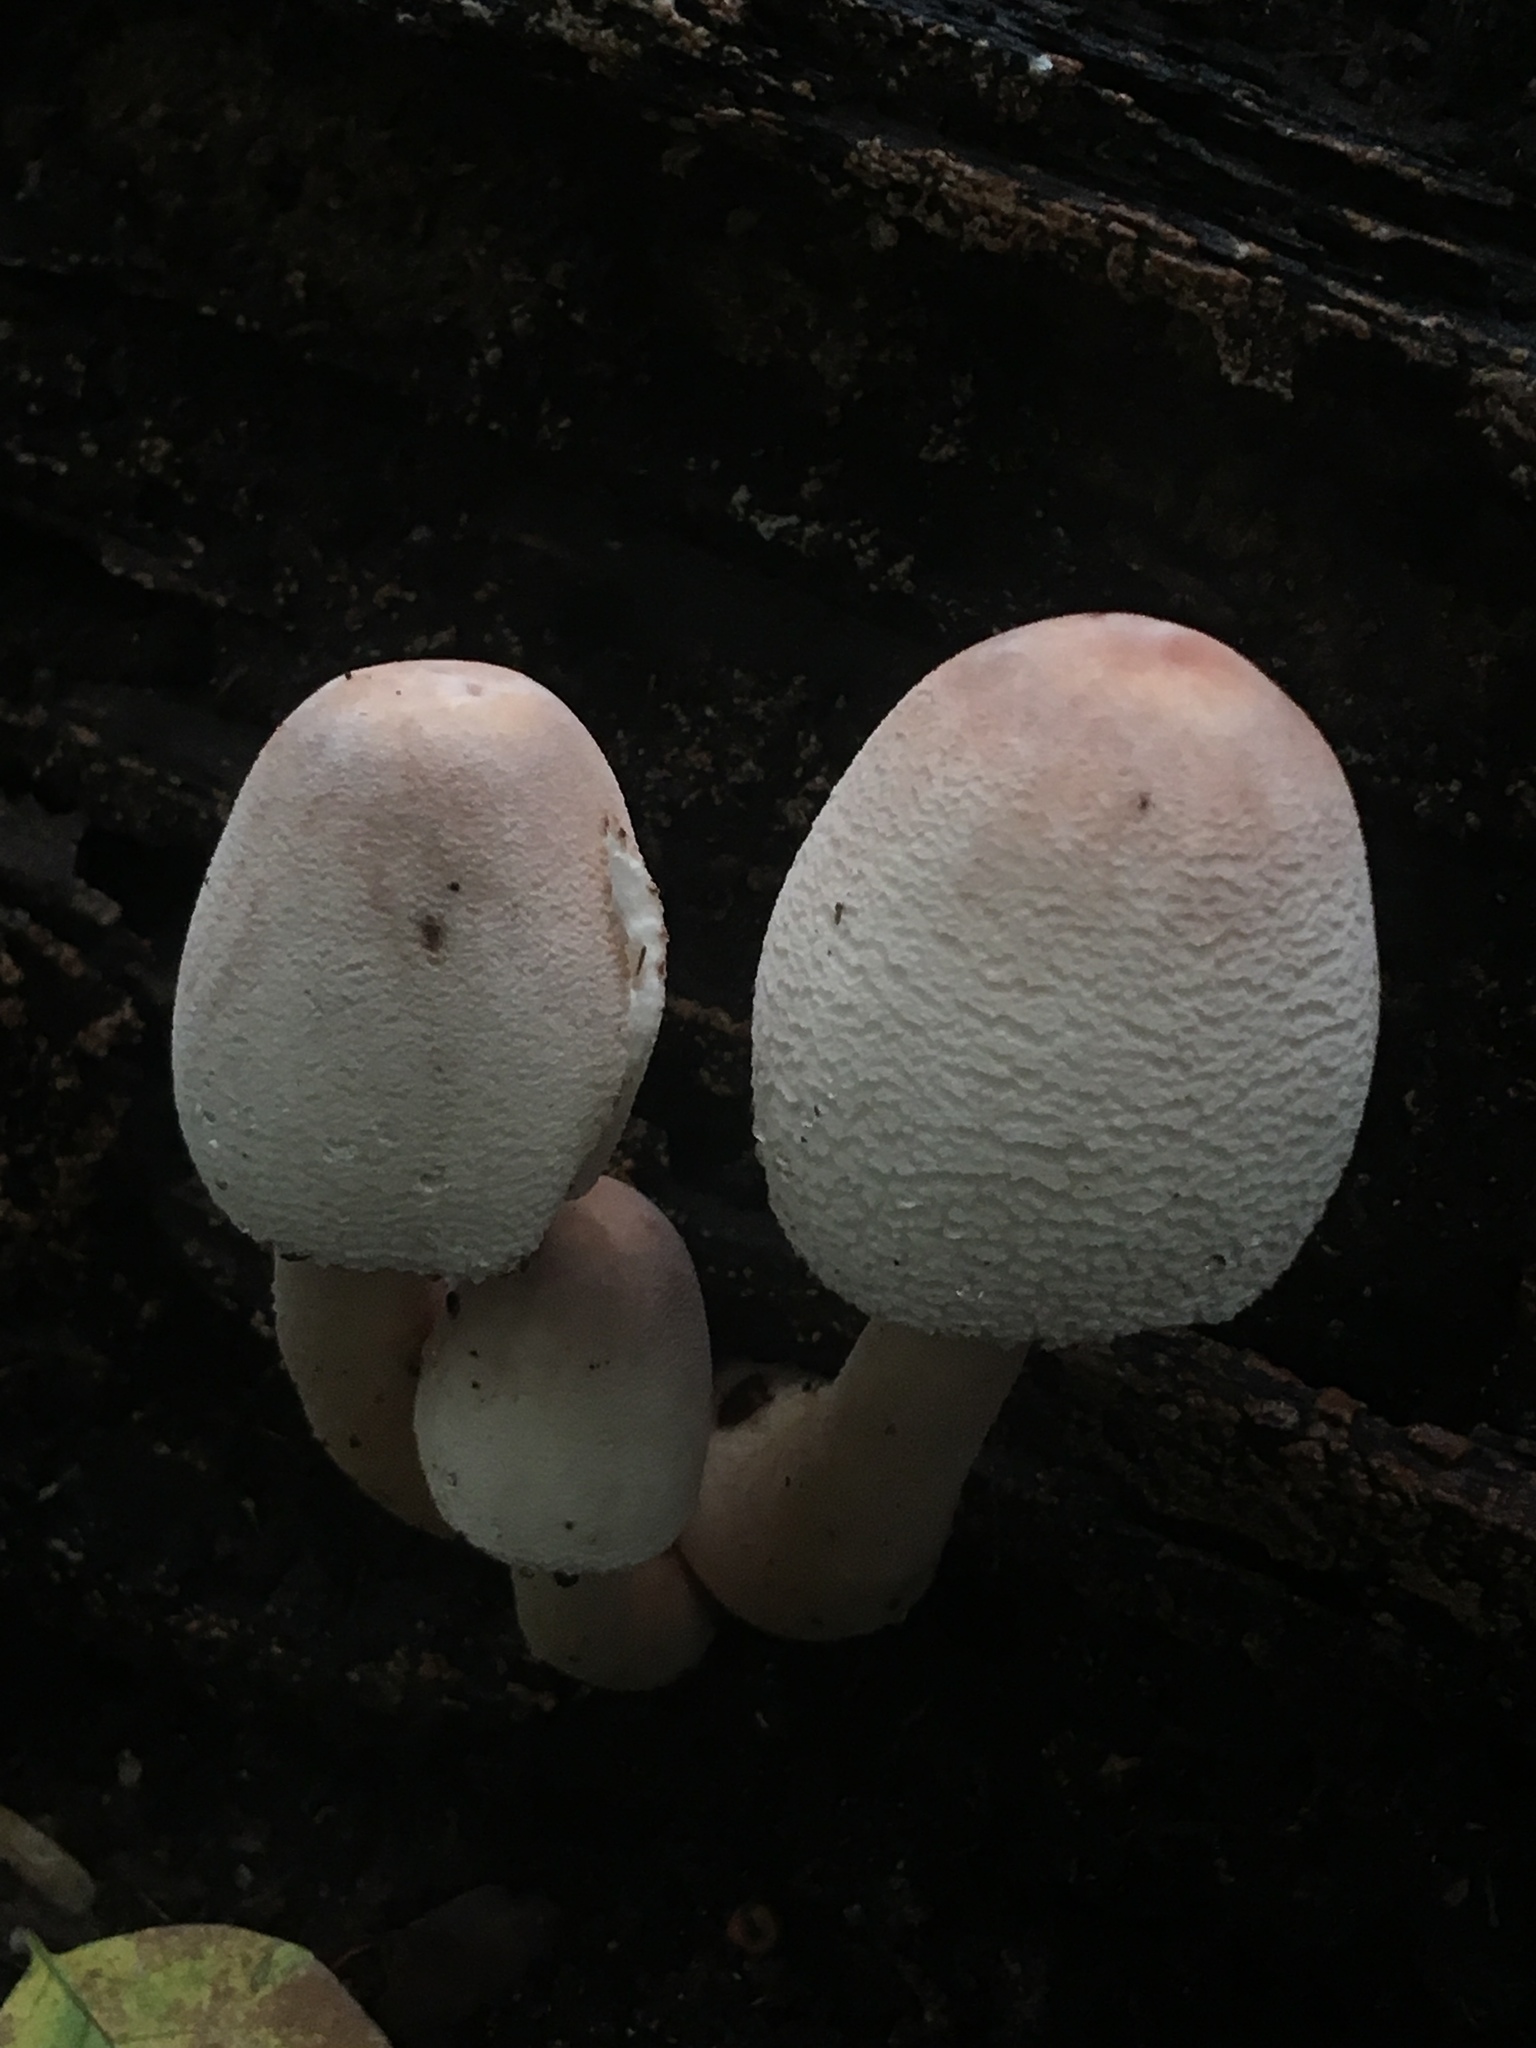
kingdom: Fungi
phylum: Basidiomycota
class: Agaricomycetes
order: Agaricales
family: Agaricaceae
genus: Leucoagaricus
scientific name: Leucoagaricus americanus
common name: Reddening lepiota
